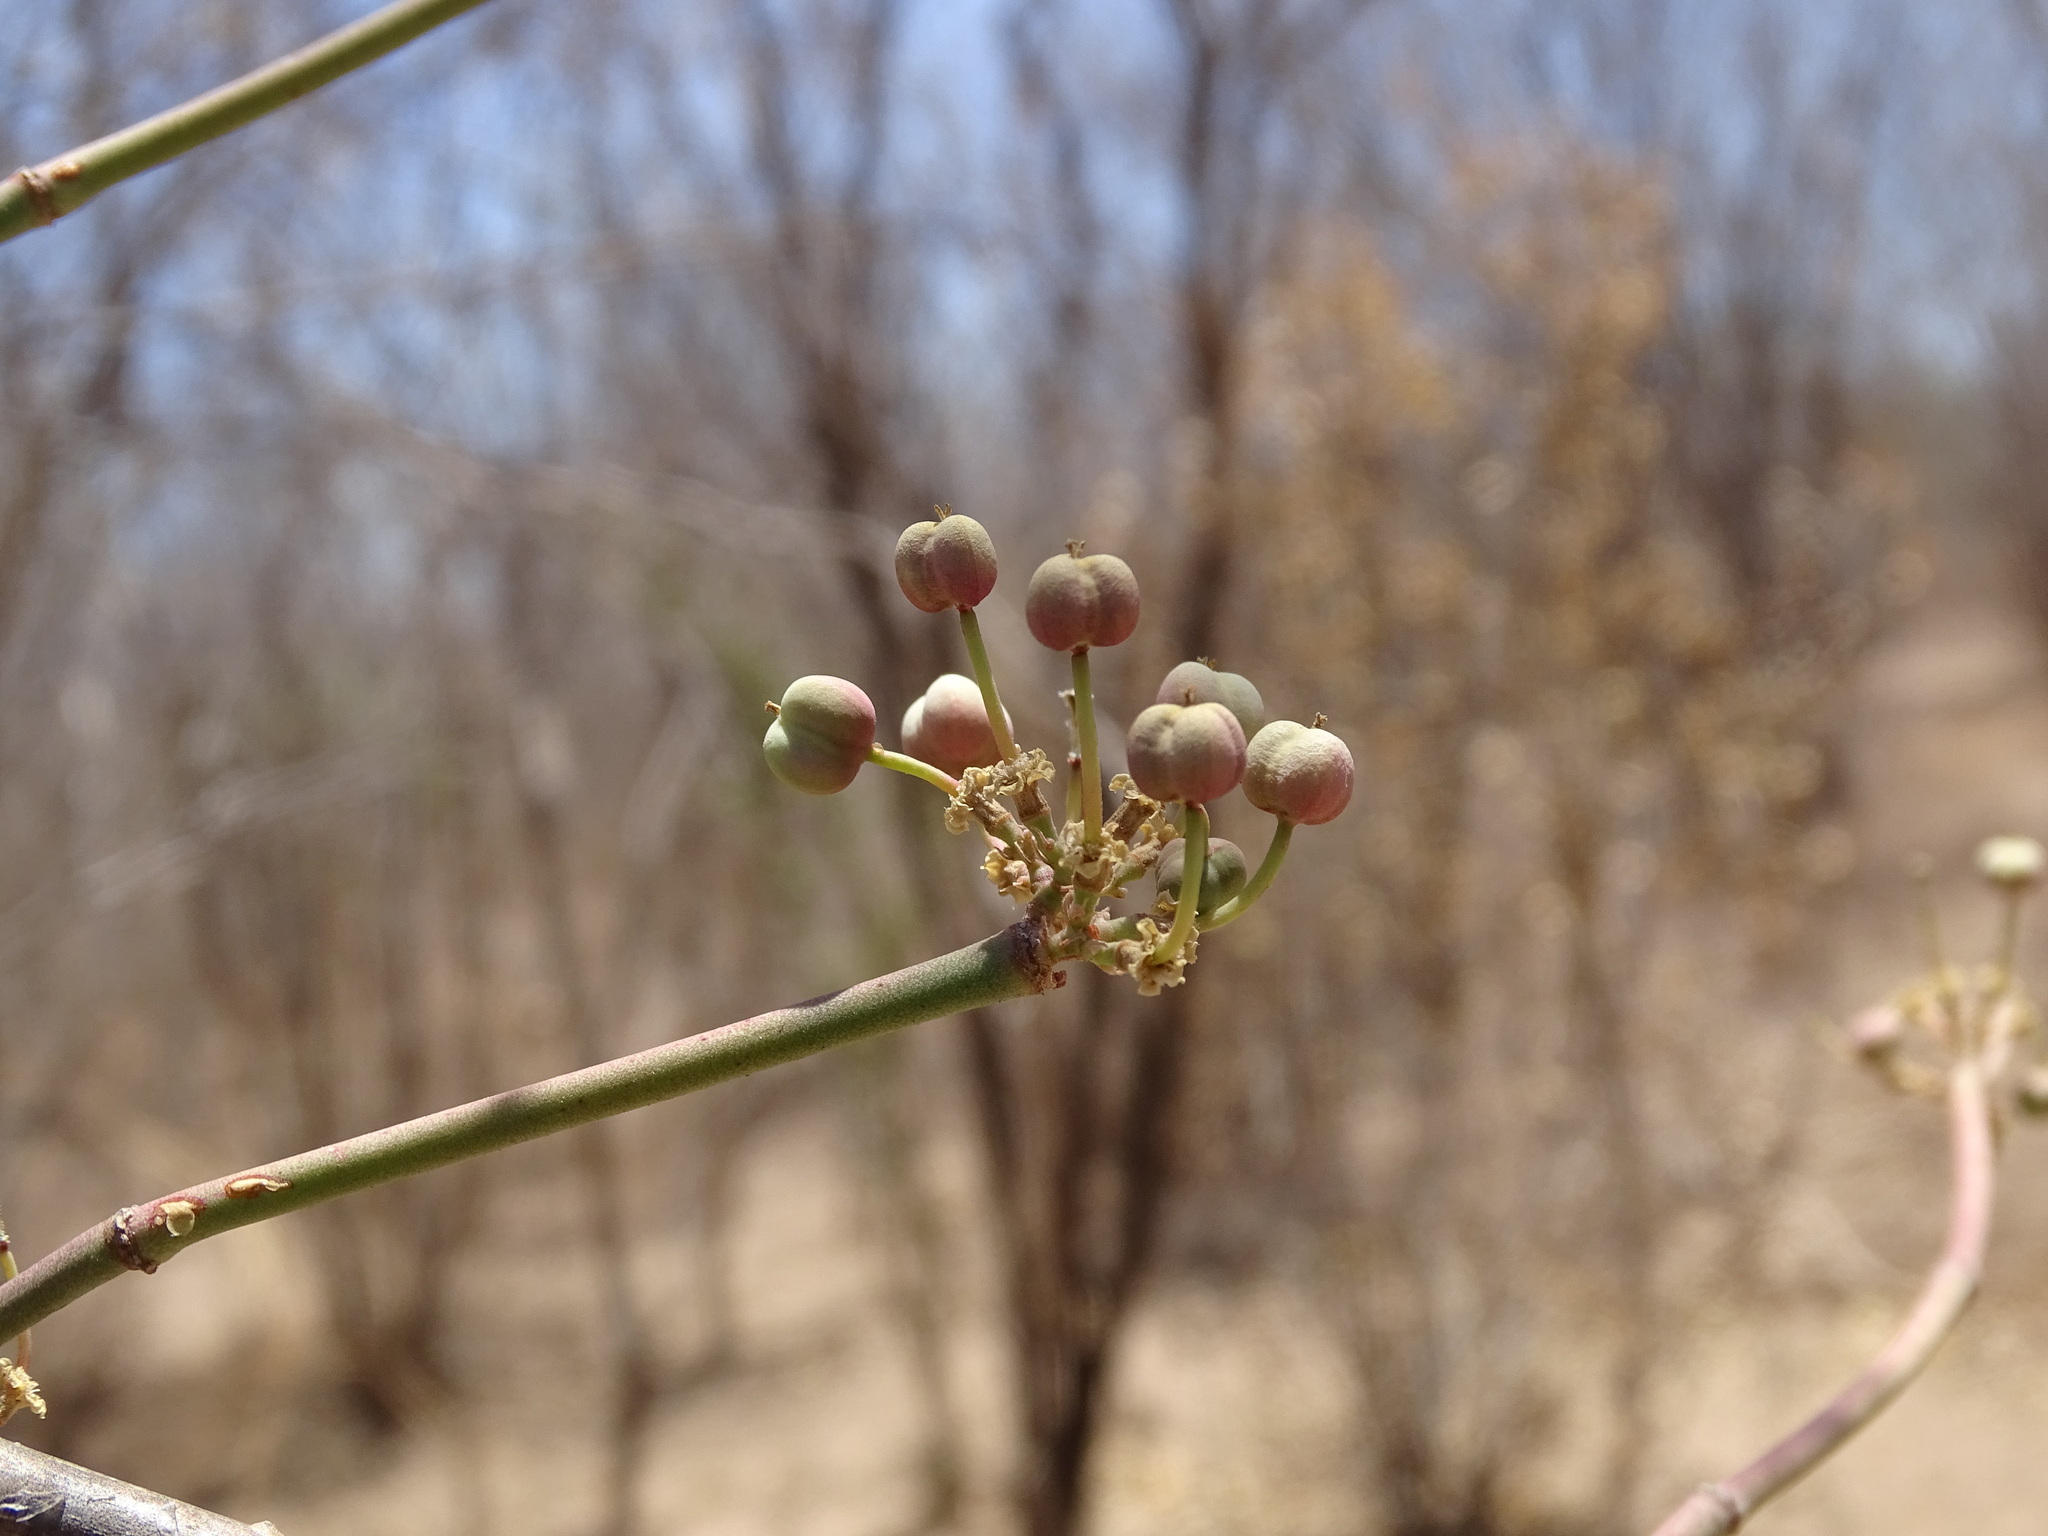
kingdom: Plantae
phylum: Tracheophyta
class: Magnoliopsida
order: Malpighiales
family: Euphorbiaceae
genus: Euphorbia
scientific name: Euphorbia cymosa
